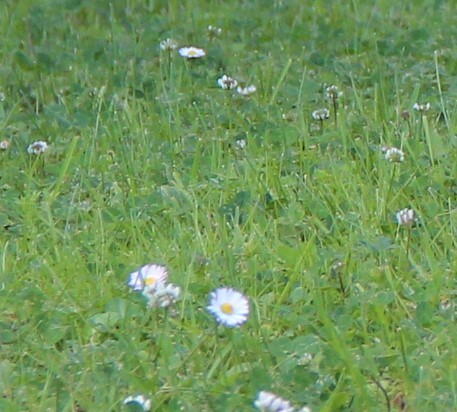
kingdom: Plantae
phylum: Tracheophyta
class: Magnoliopsida
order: Asterales
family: Asteraceae
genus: Bellis
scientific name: Bellis perennis
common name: Lawndaisy
